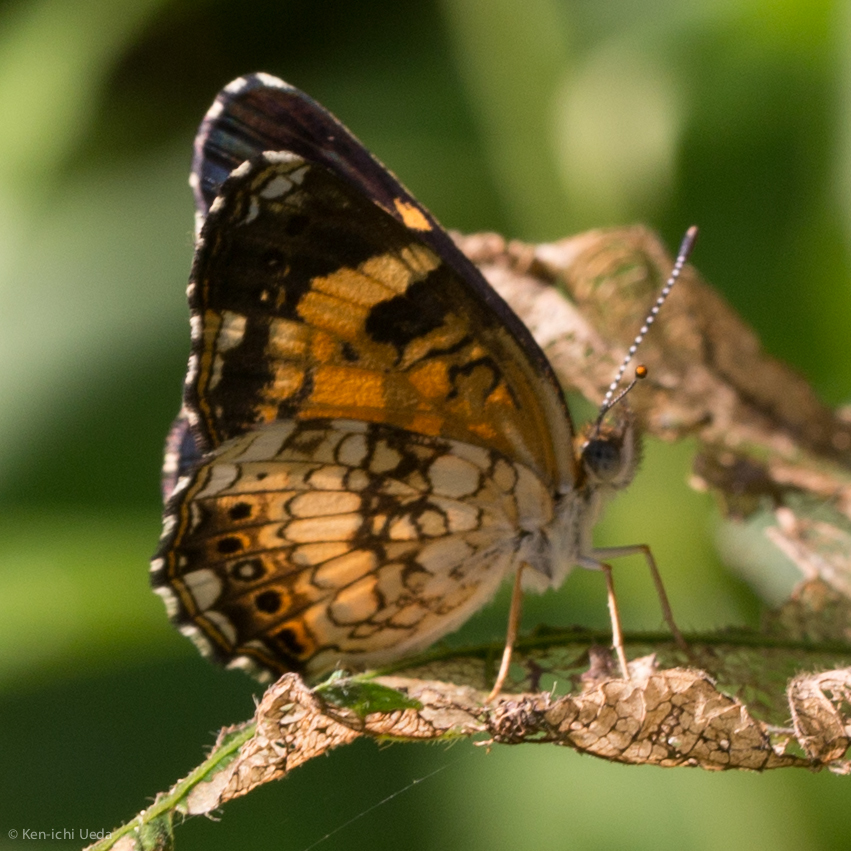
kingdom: Animalia
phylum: Arthropoda
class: Insecta
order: Lepidoptera
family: Nymphalidae
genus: Chlosyne
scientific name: Chlosyne nycteis
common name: Silvery checkerspot
